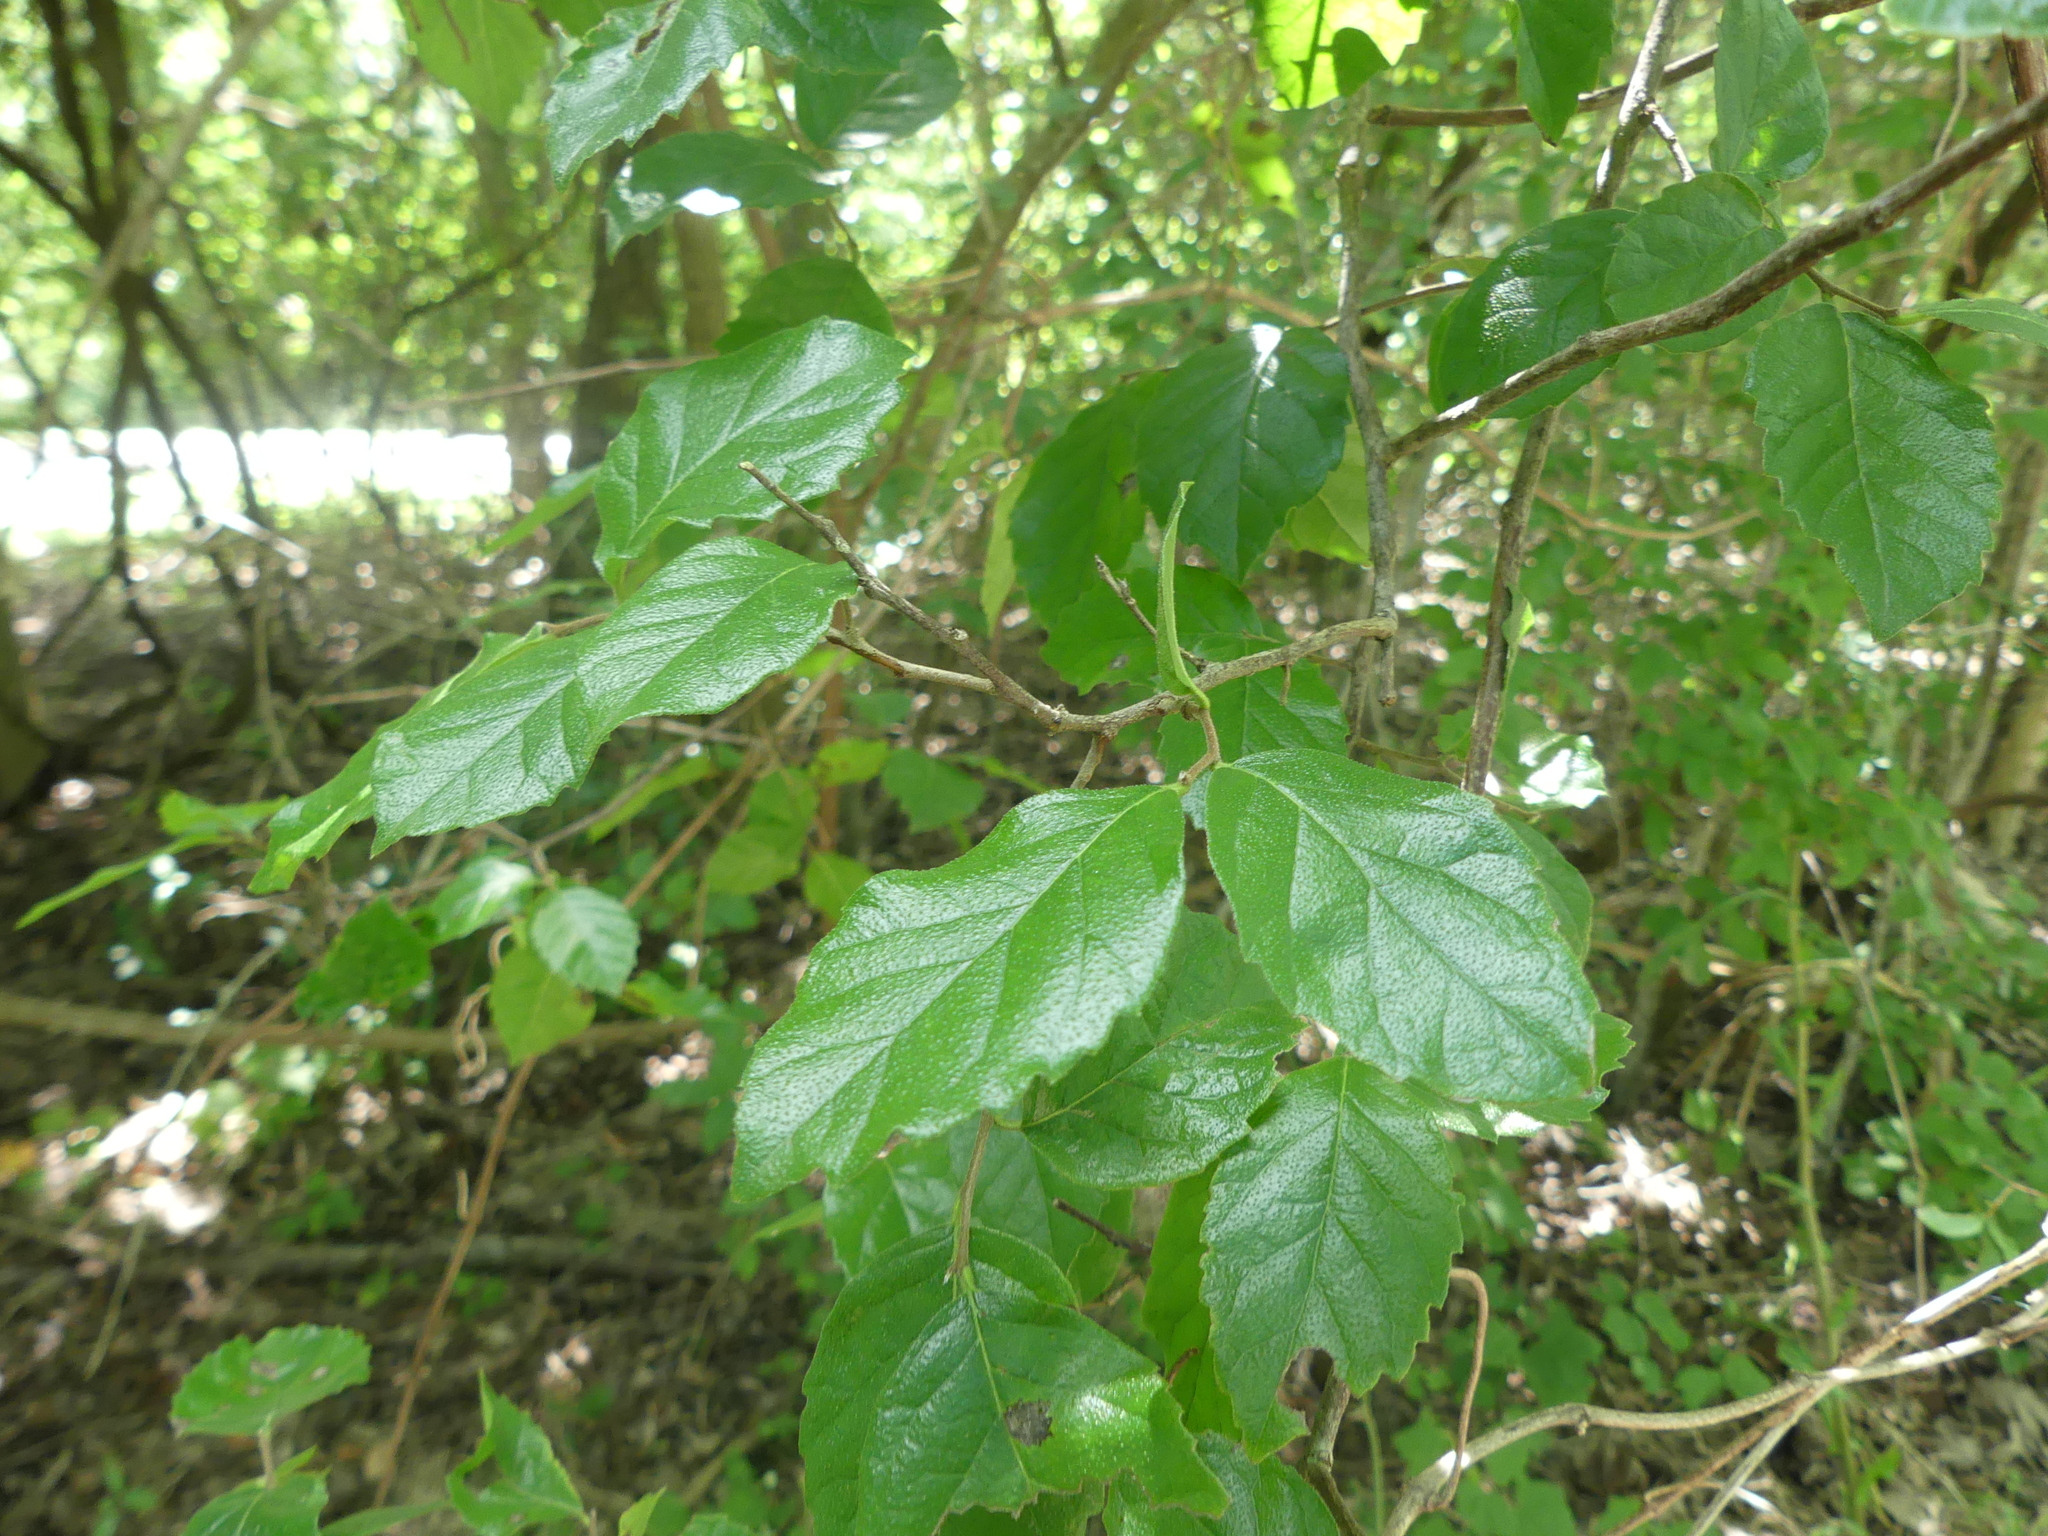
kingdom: Plantae
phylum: Tracheophyta
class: Magnoliopsida
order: Boraginales
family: Ehretiaceae
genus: Ehretia
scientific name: Ehretia anacua
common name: Sugarberry
